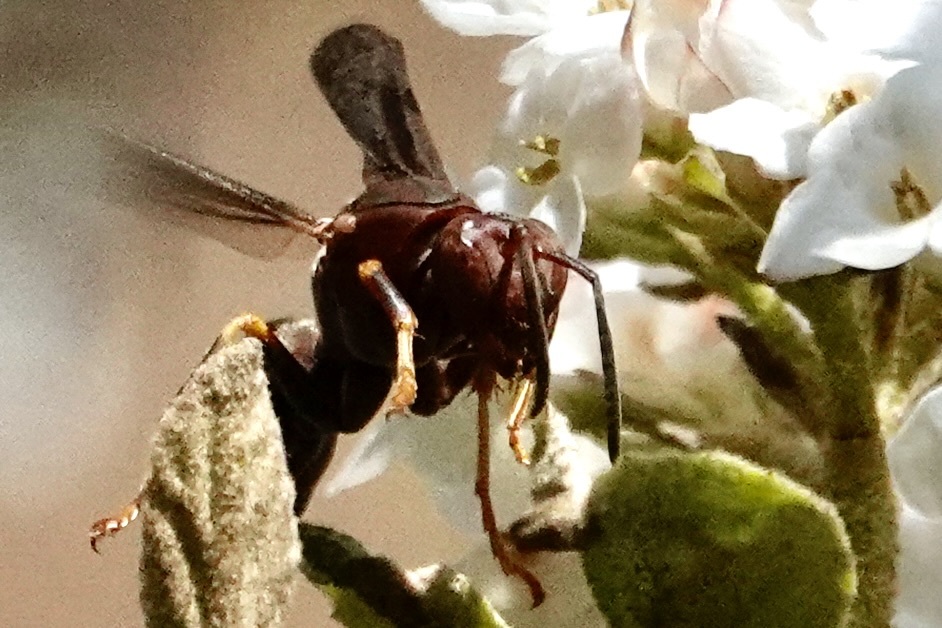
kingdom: Animalia
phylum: Arthropoda
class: Insecta
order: Hymenoptera
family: Eumenidae
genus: Polistes
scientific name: Polistes metricus
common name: Metric paper wasp
